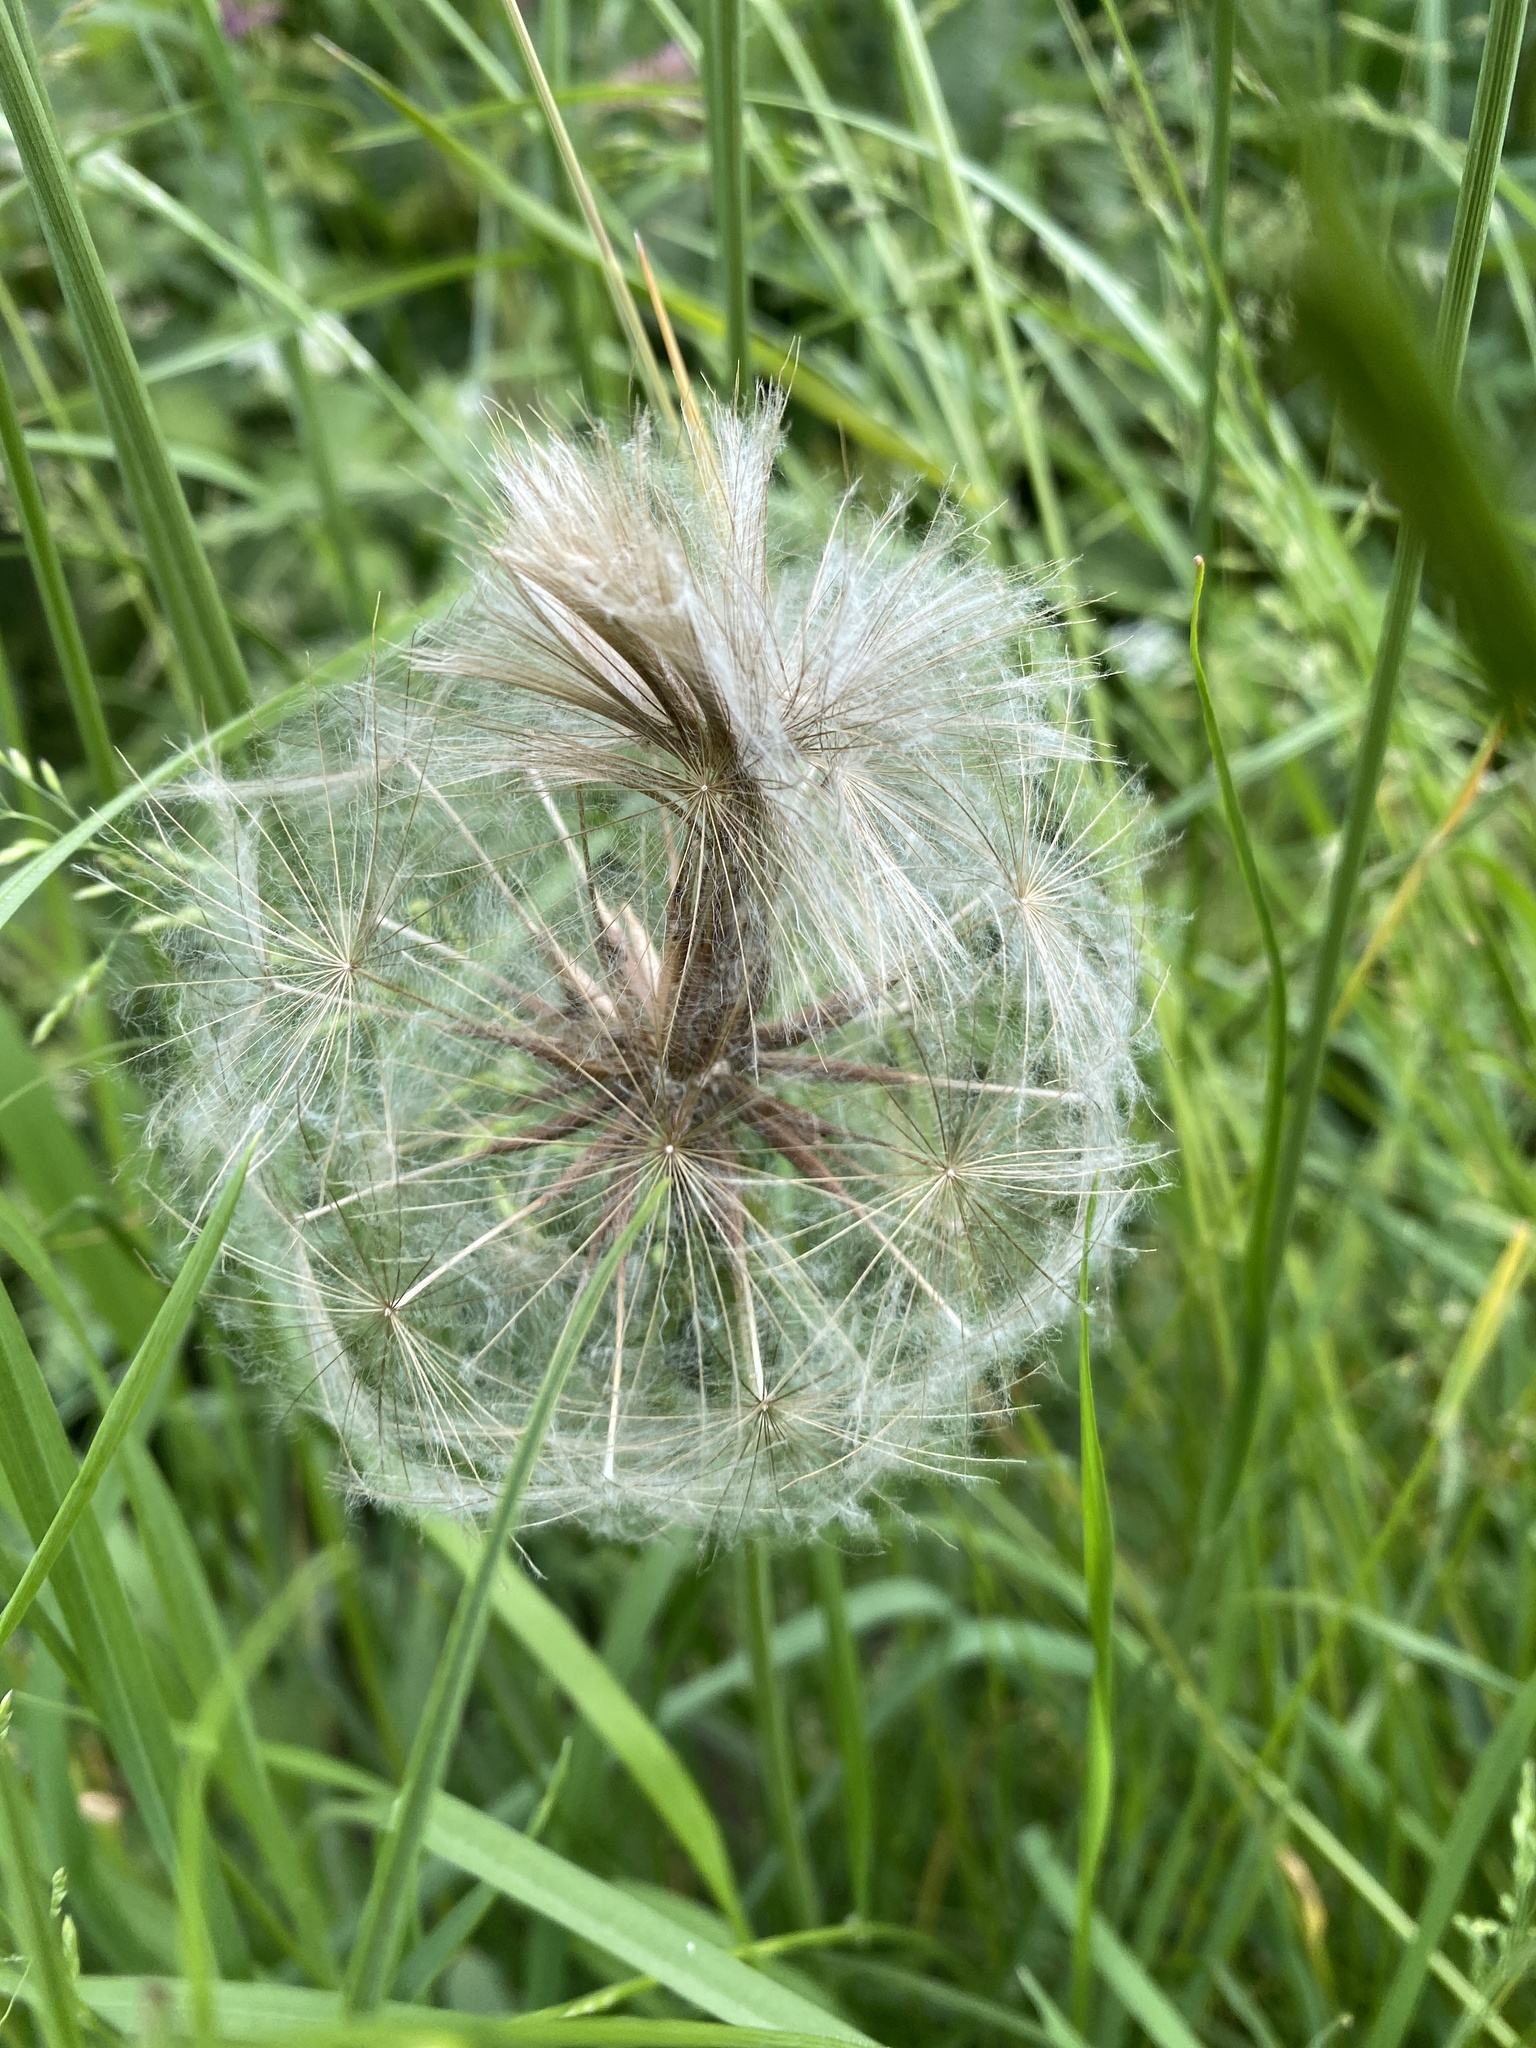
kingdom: Plantae
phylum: Tracheophyta
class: Magnoliopsida
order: Asterales
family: Asteraceae
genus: Tragopogon
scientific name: Tragopogon pratensis
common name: Goat's-beard
